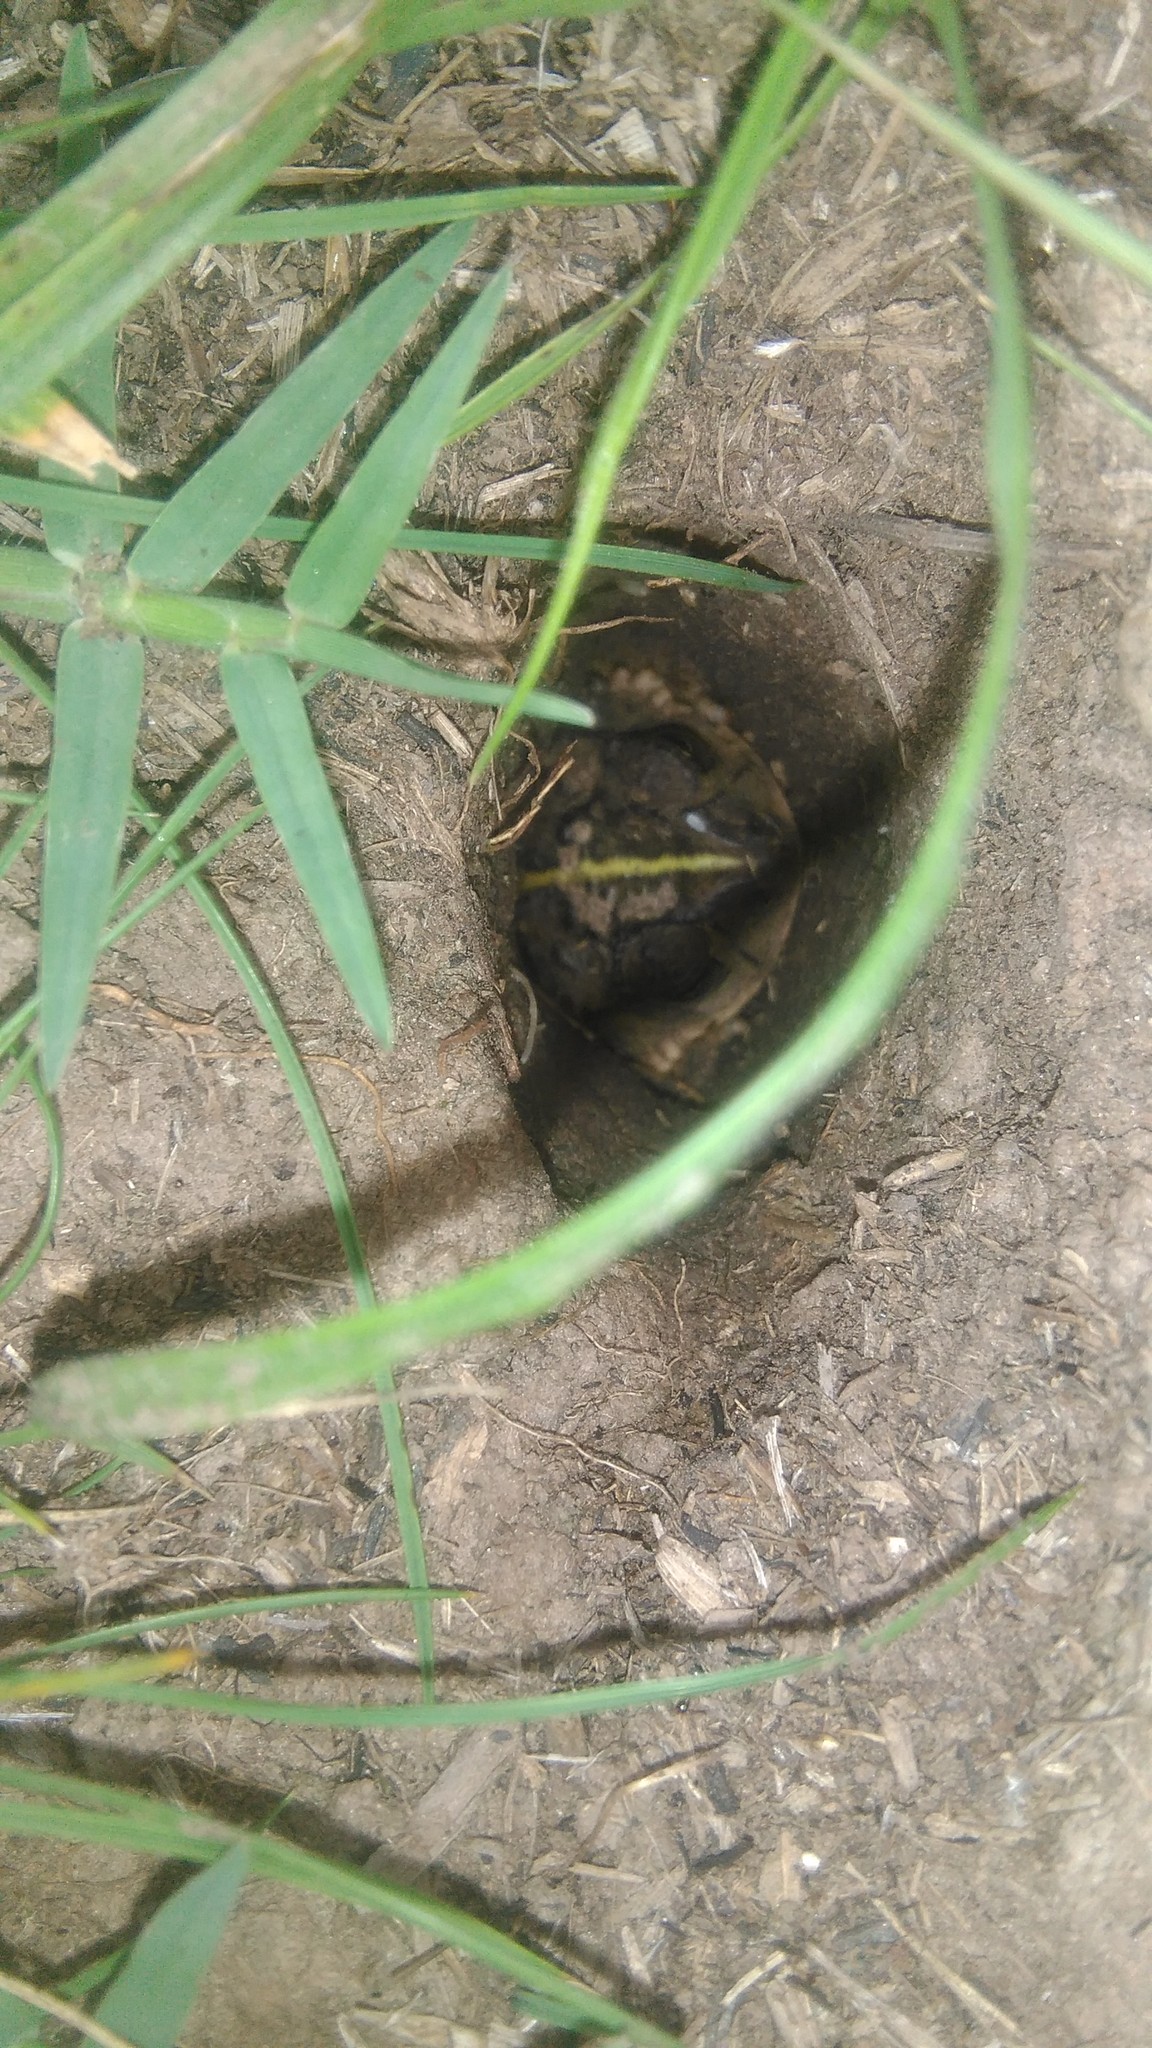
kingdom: Animalia
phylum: Chordata
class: Amphibia
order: Anura
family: Bufonidae
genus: Rhinella
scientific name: Rhinella dorbignyi
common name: D´orbigny’s toad
